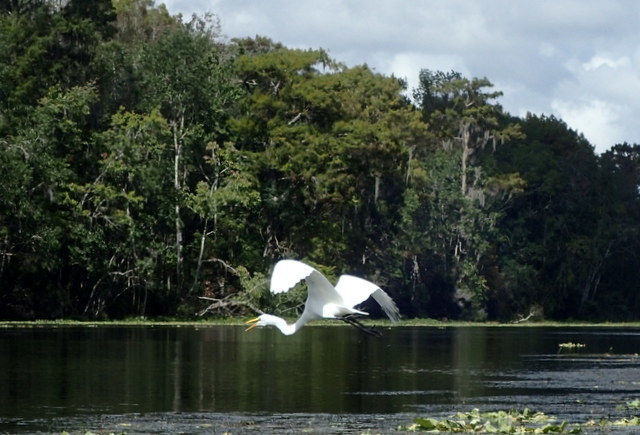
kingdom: Animalia
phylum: Chordata
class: Aves
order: Pelecaniformes
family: Ardeidae
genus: Ardea
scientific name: Ardea alba
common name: Great egret
